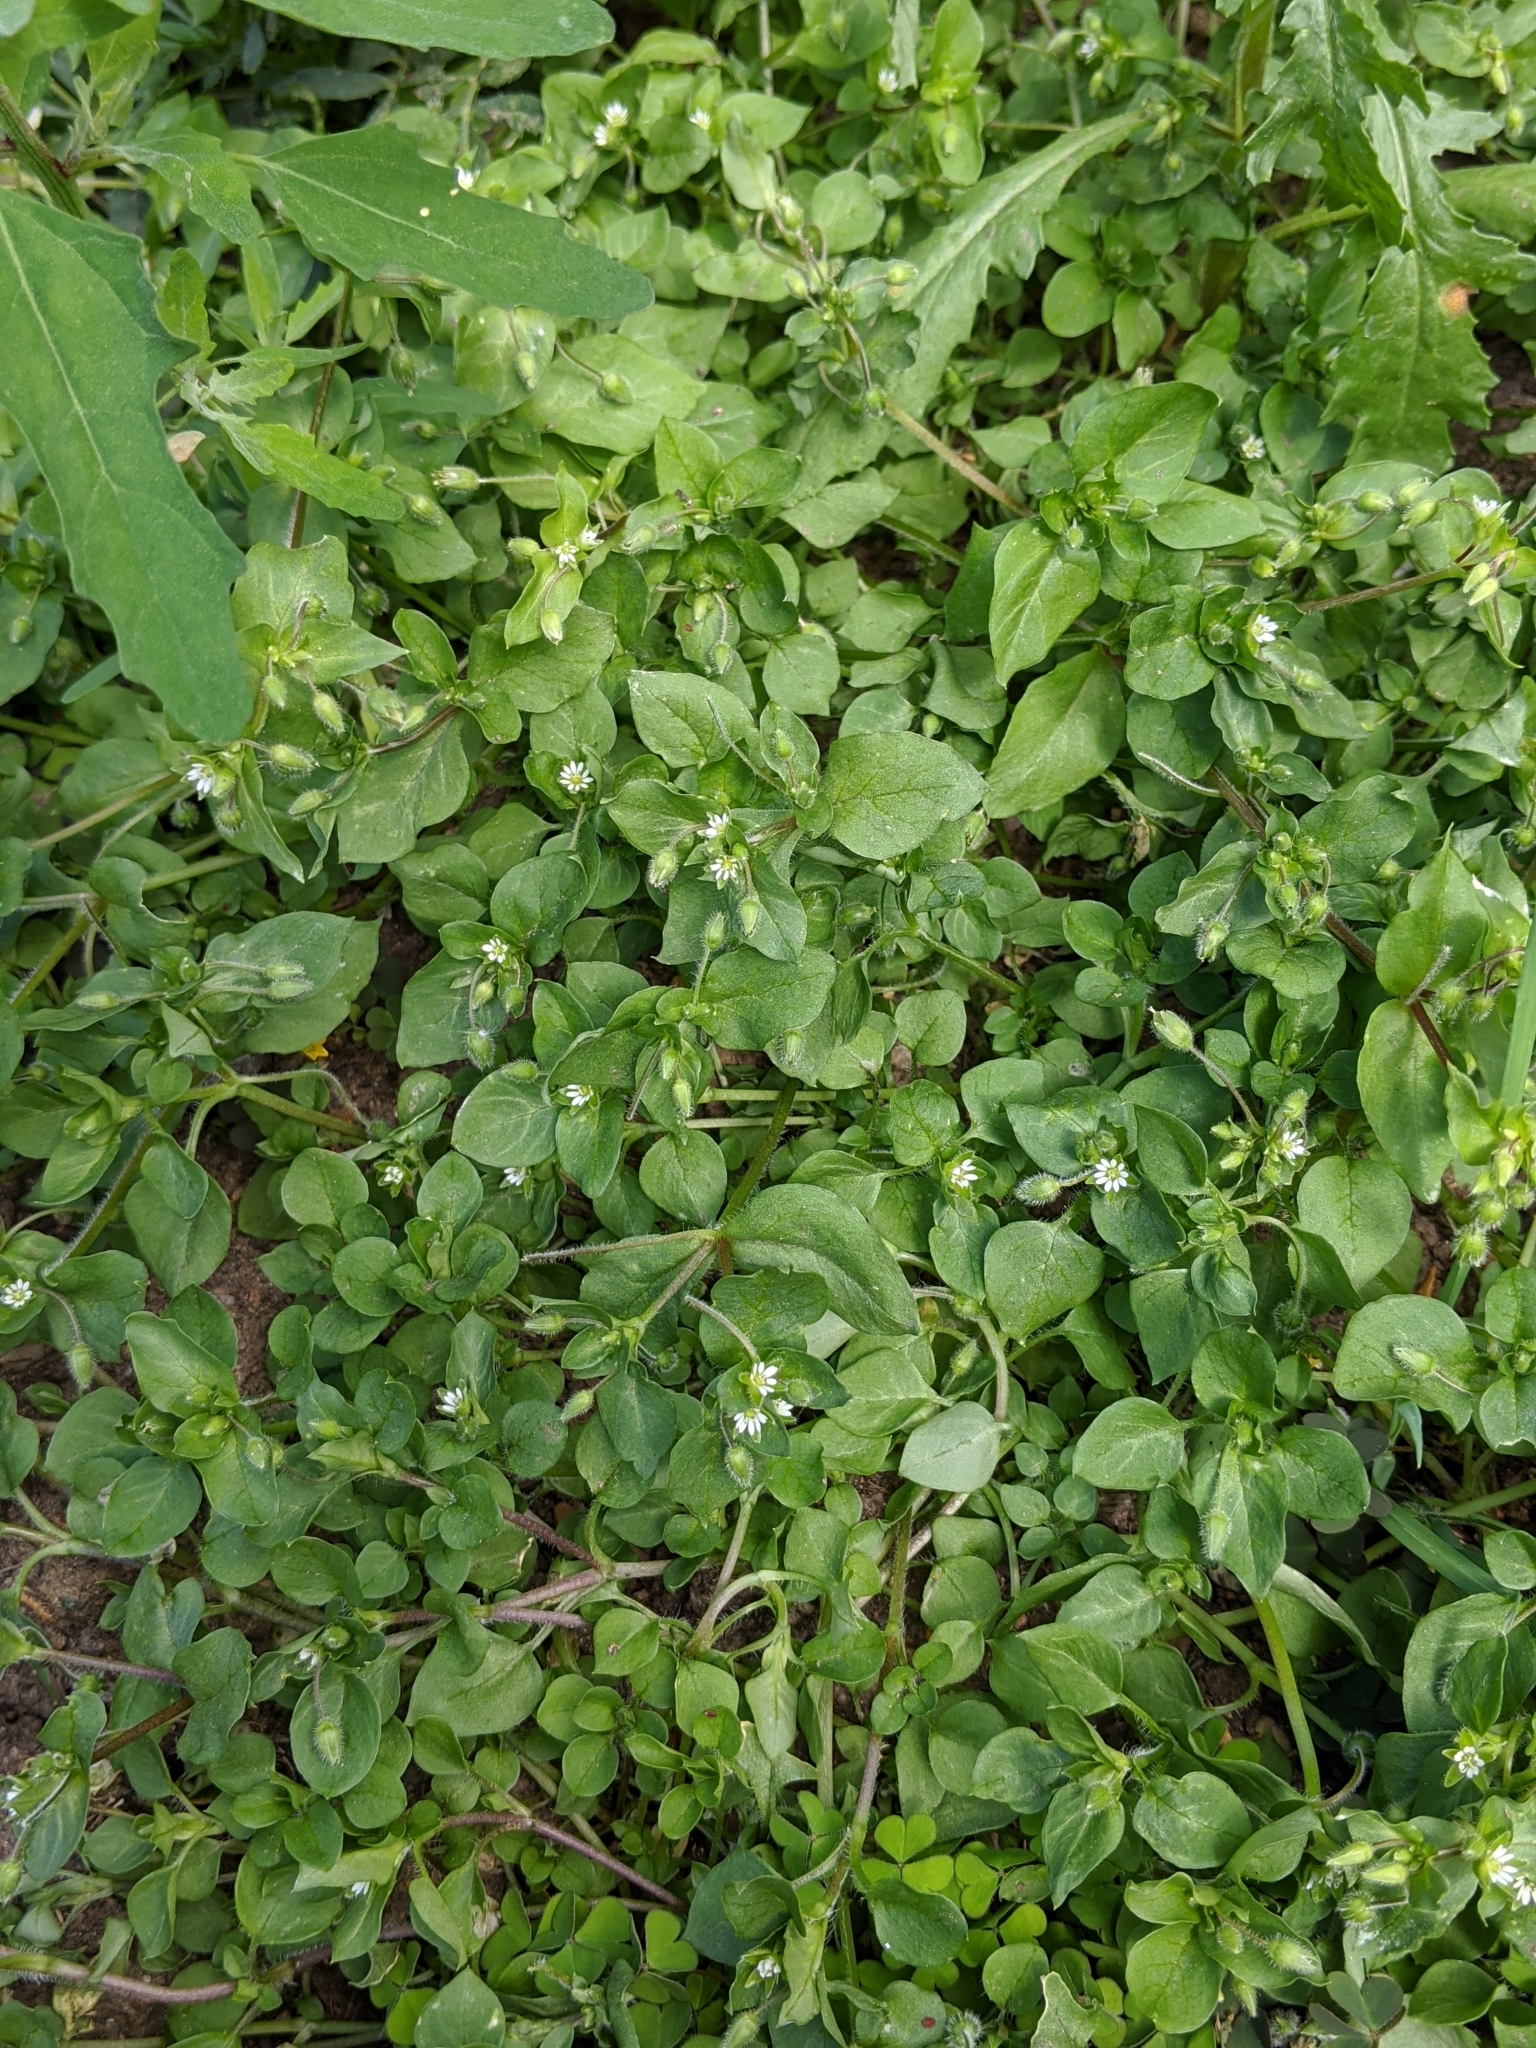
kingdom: Plantae
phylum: Tracheophyta
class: Magnoliopsida
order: Caryophyllales
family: Caryophyllaceae
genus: Stellaria
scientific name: Stellaria media
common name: Common chickweed
